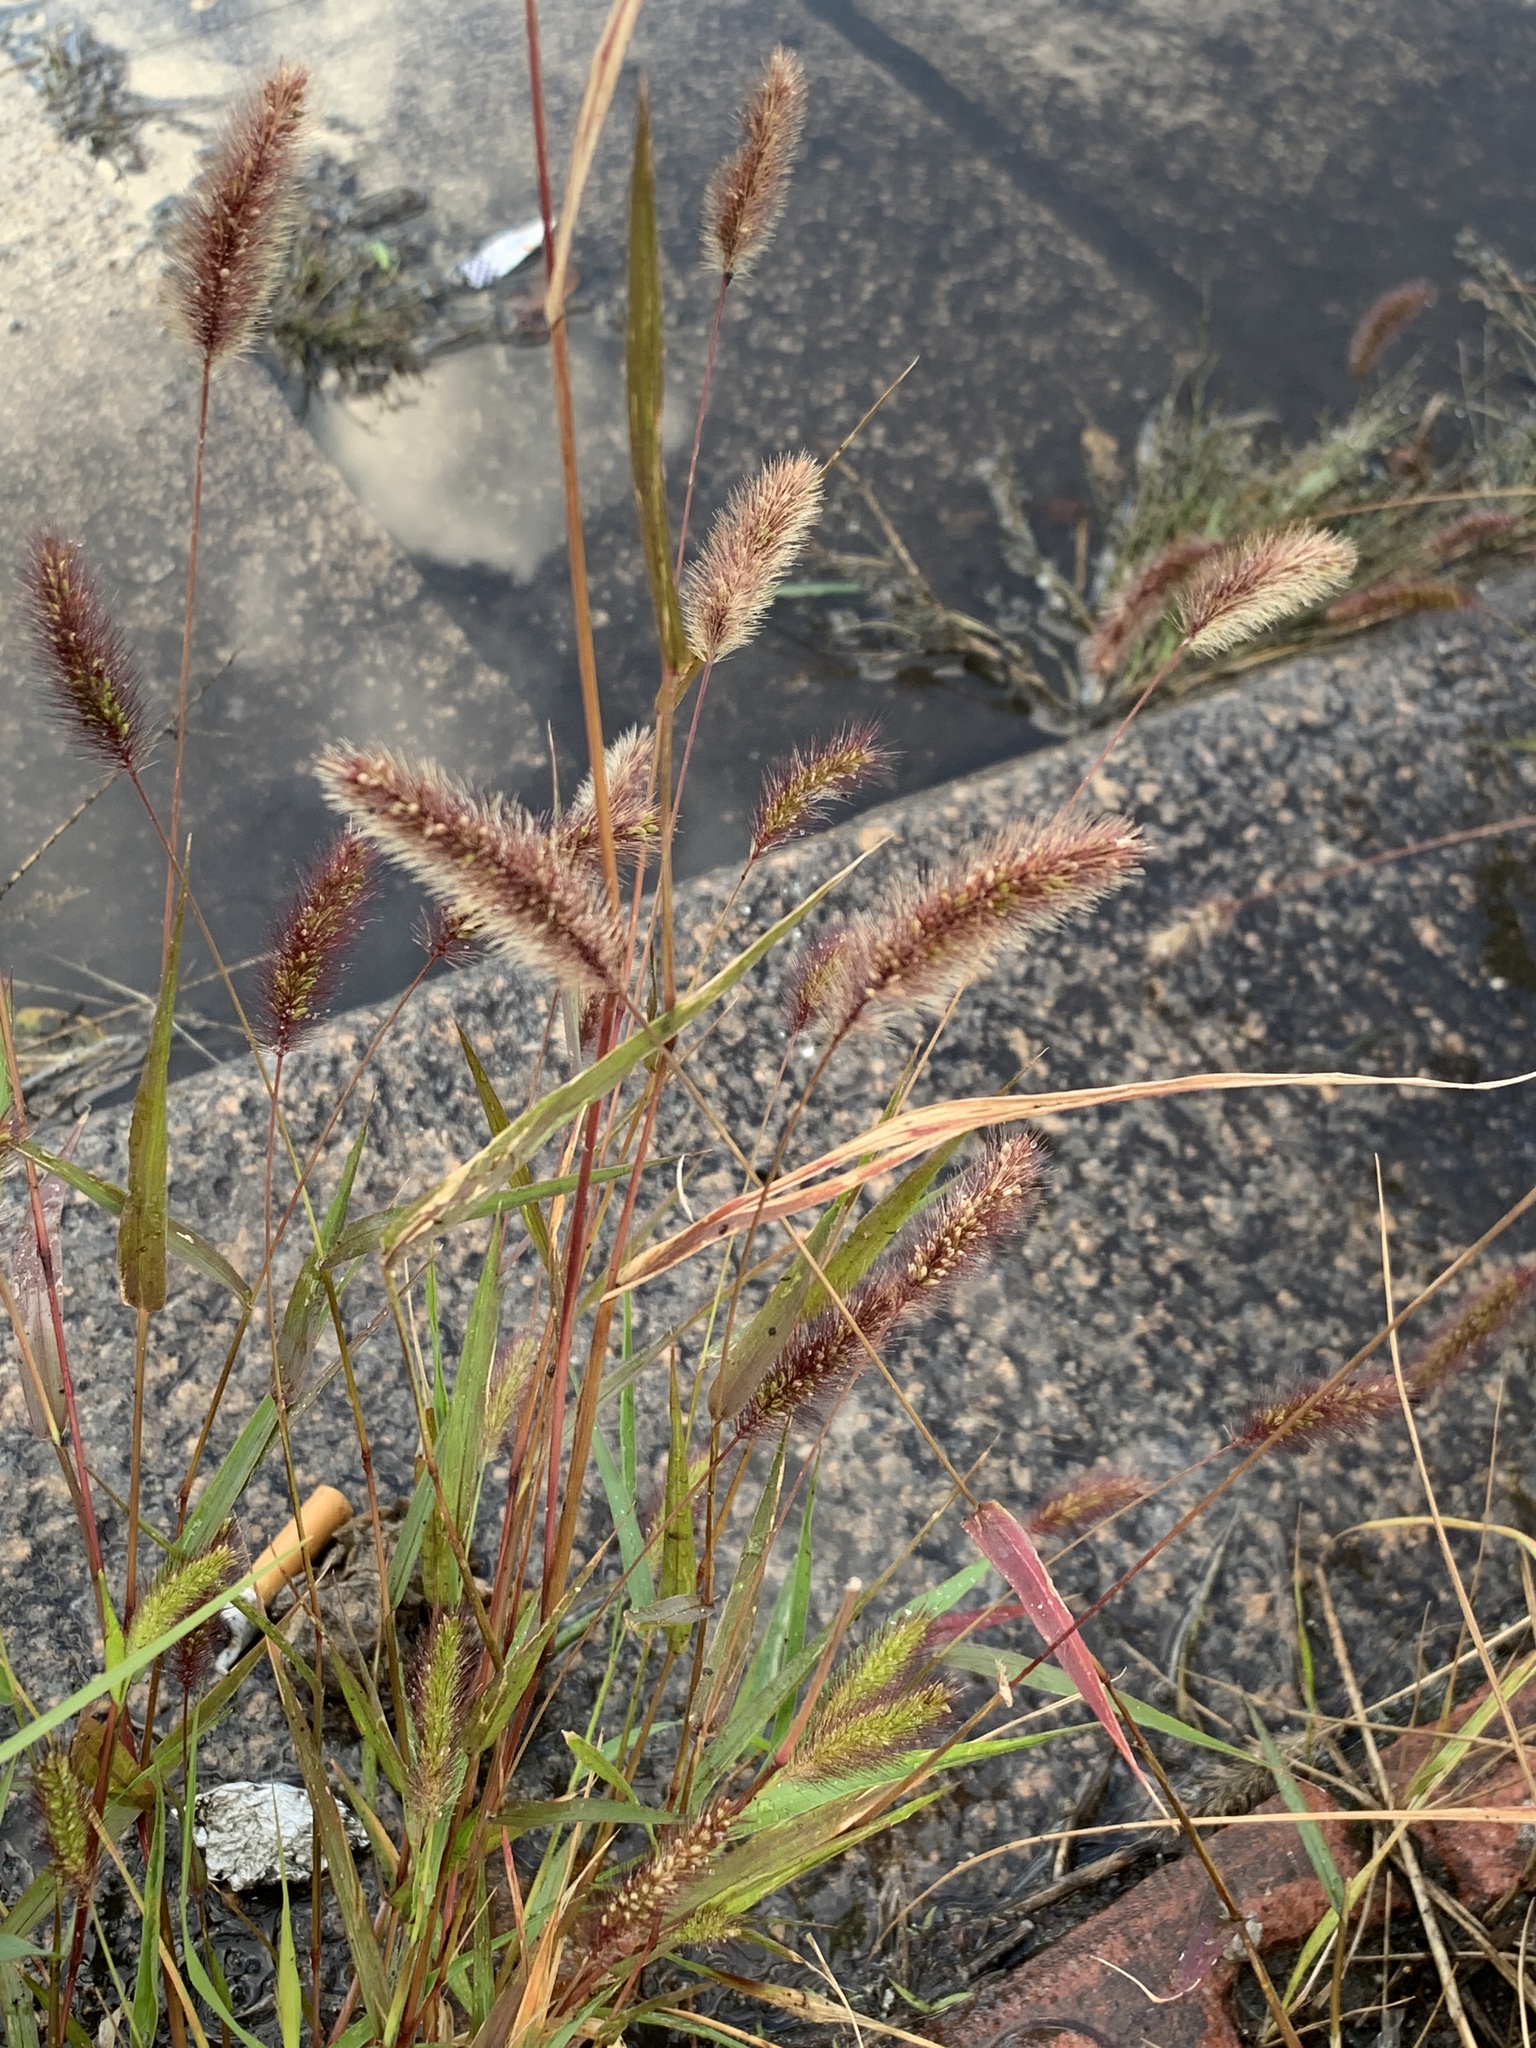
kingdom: Plantae
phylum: Tracheophyta
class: Liliopsida
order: Poales
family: Poaceae
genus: Setaria
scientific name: Setaria viridis
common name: Green bristlegrass
